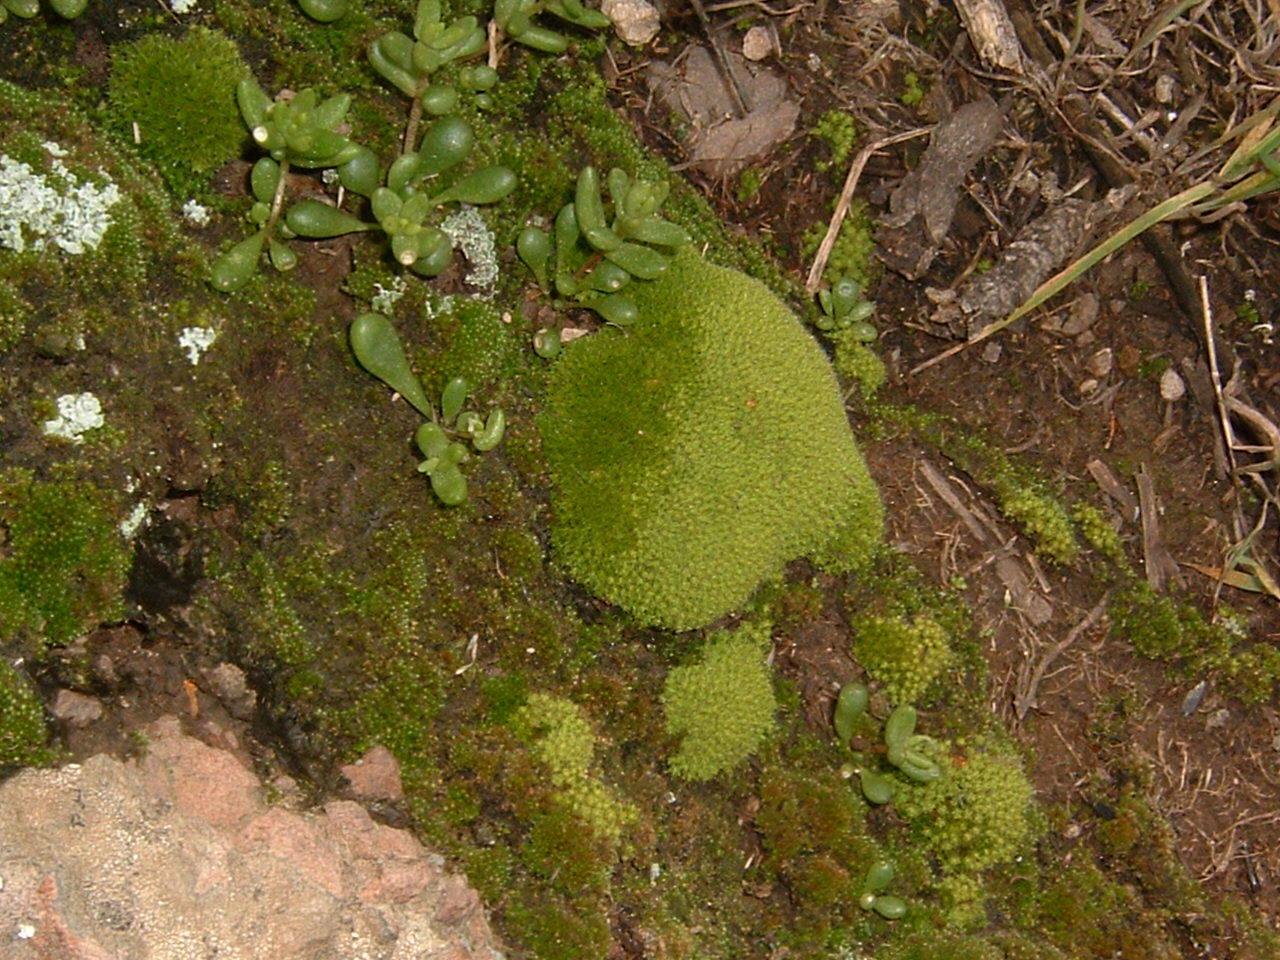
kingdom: Plantae
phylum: Tracheophyta
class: Magnoliopsida
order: Saxifragales
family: Crassulaceae
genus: Dudleya
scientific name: Dudleya blochmaniae
